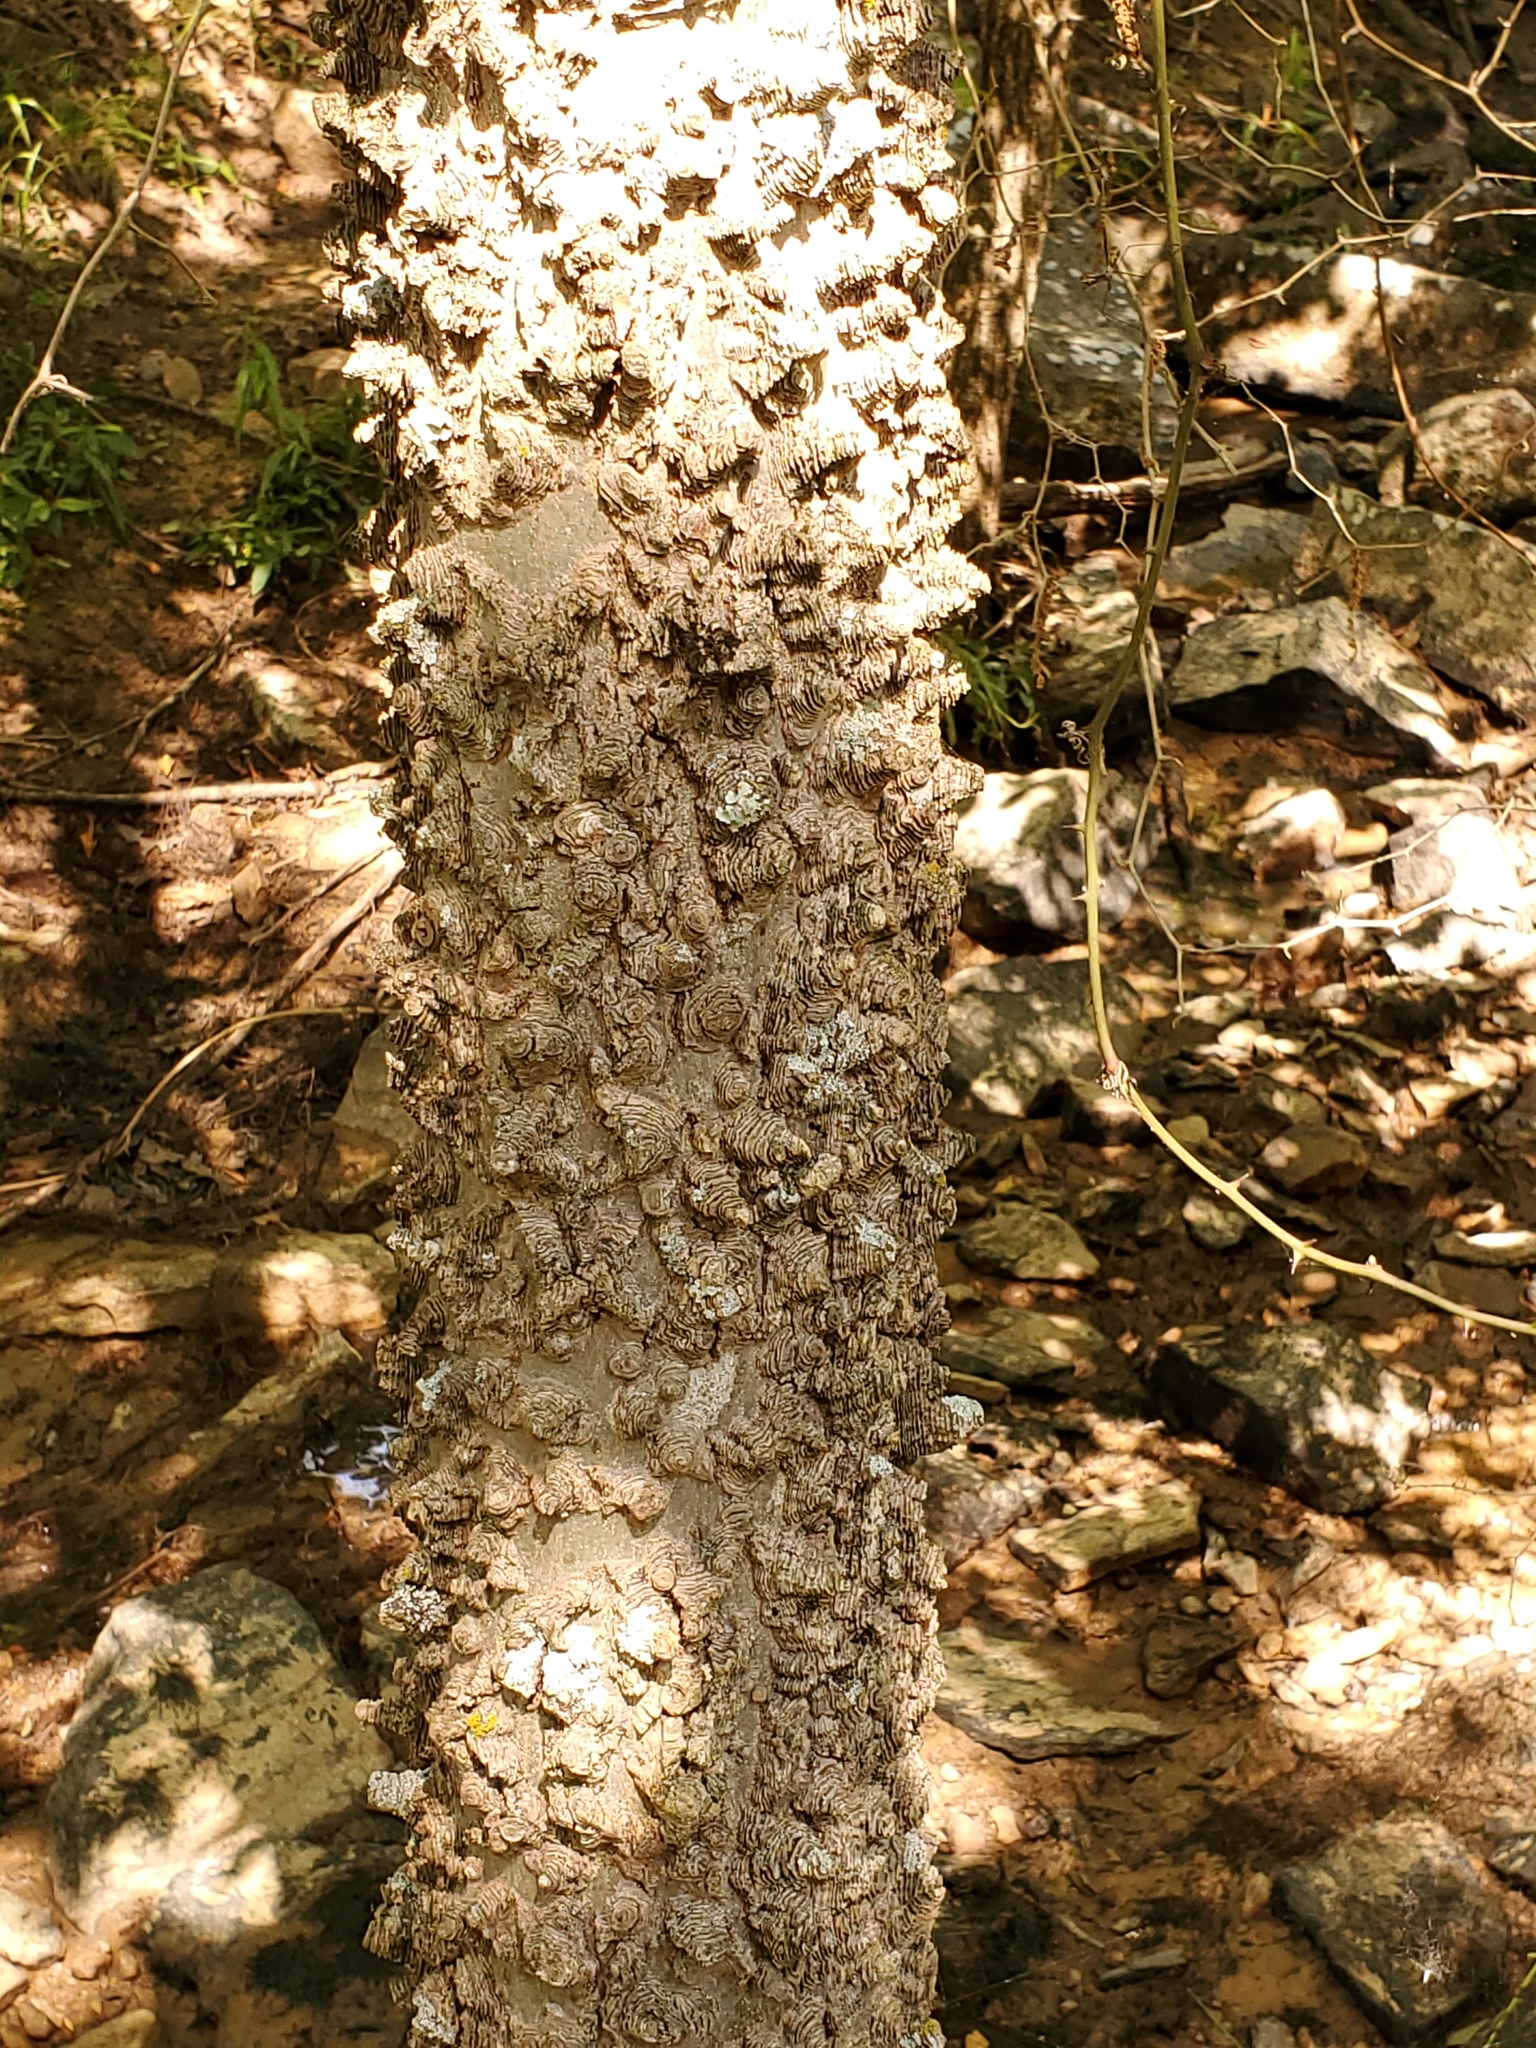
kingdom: Plantae
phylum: Tracheophyta
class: Magnoliopsida
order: Rosales
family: Cannabaceae
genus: Celtis
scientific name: Celtis laevigata
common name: Sugarberry
